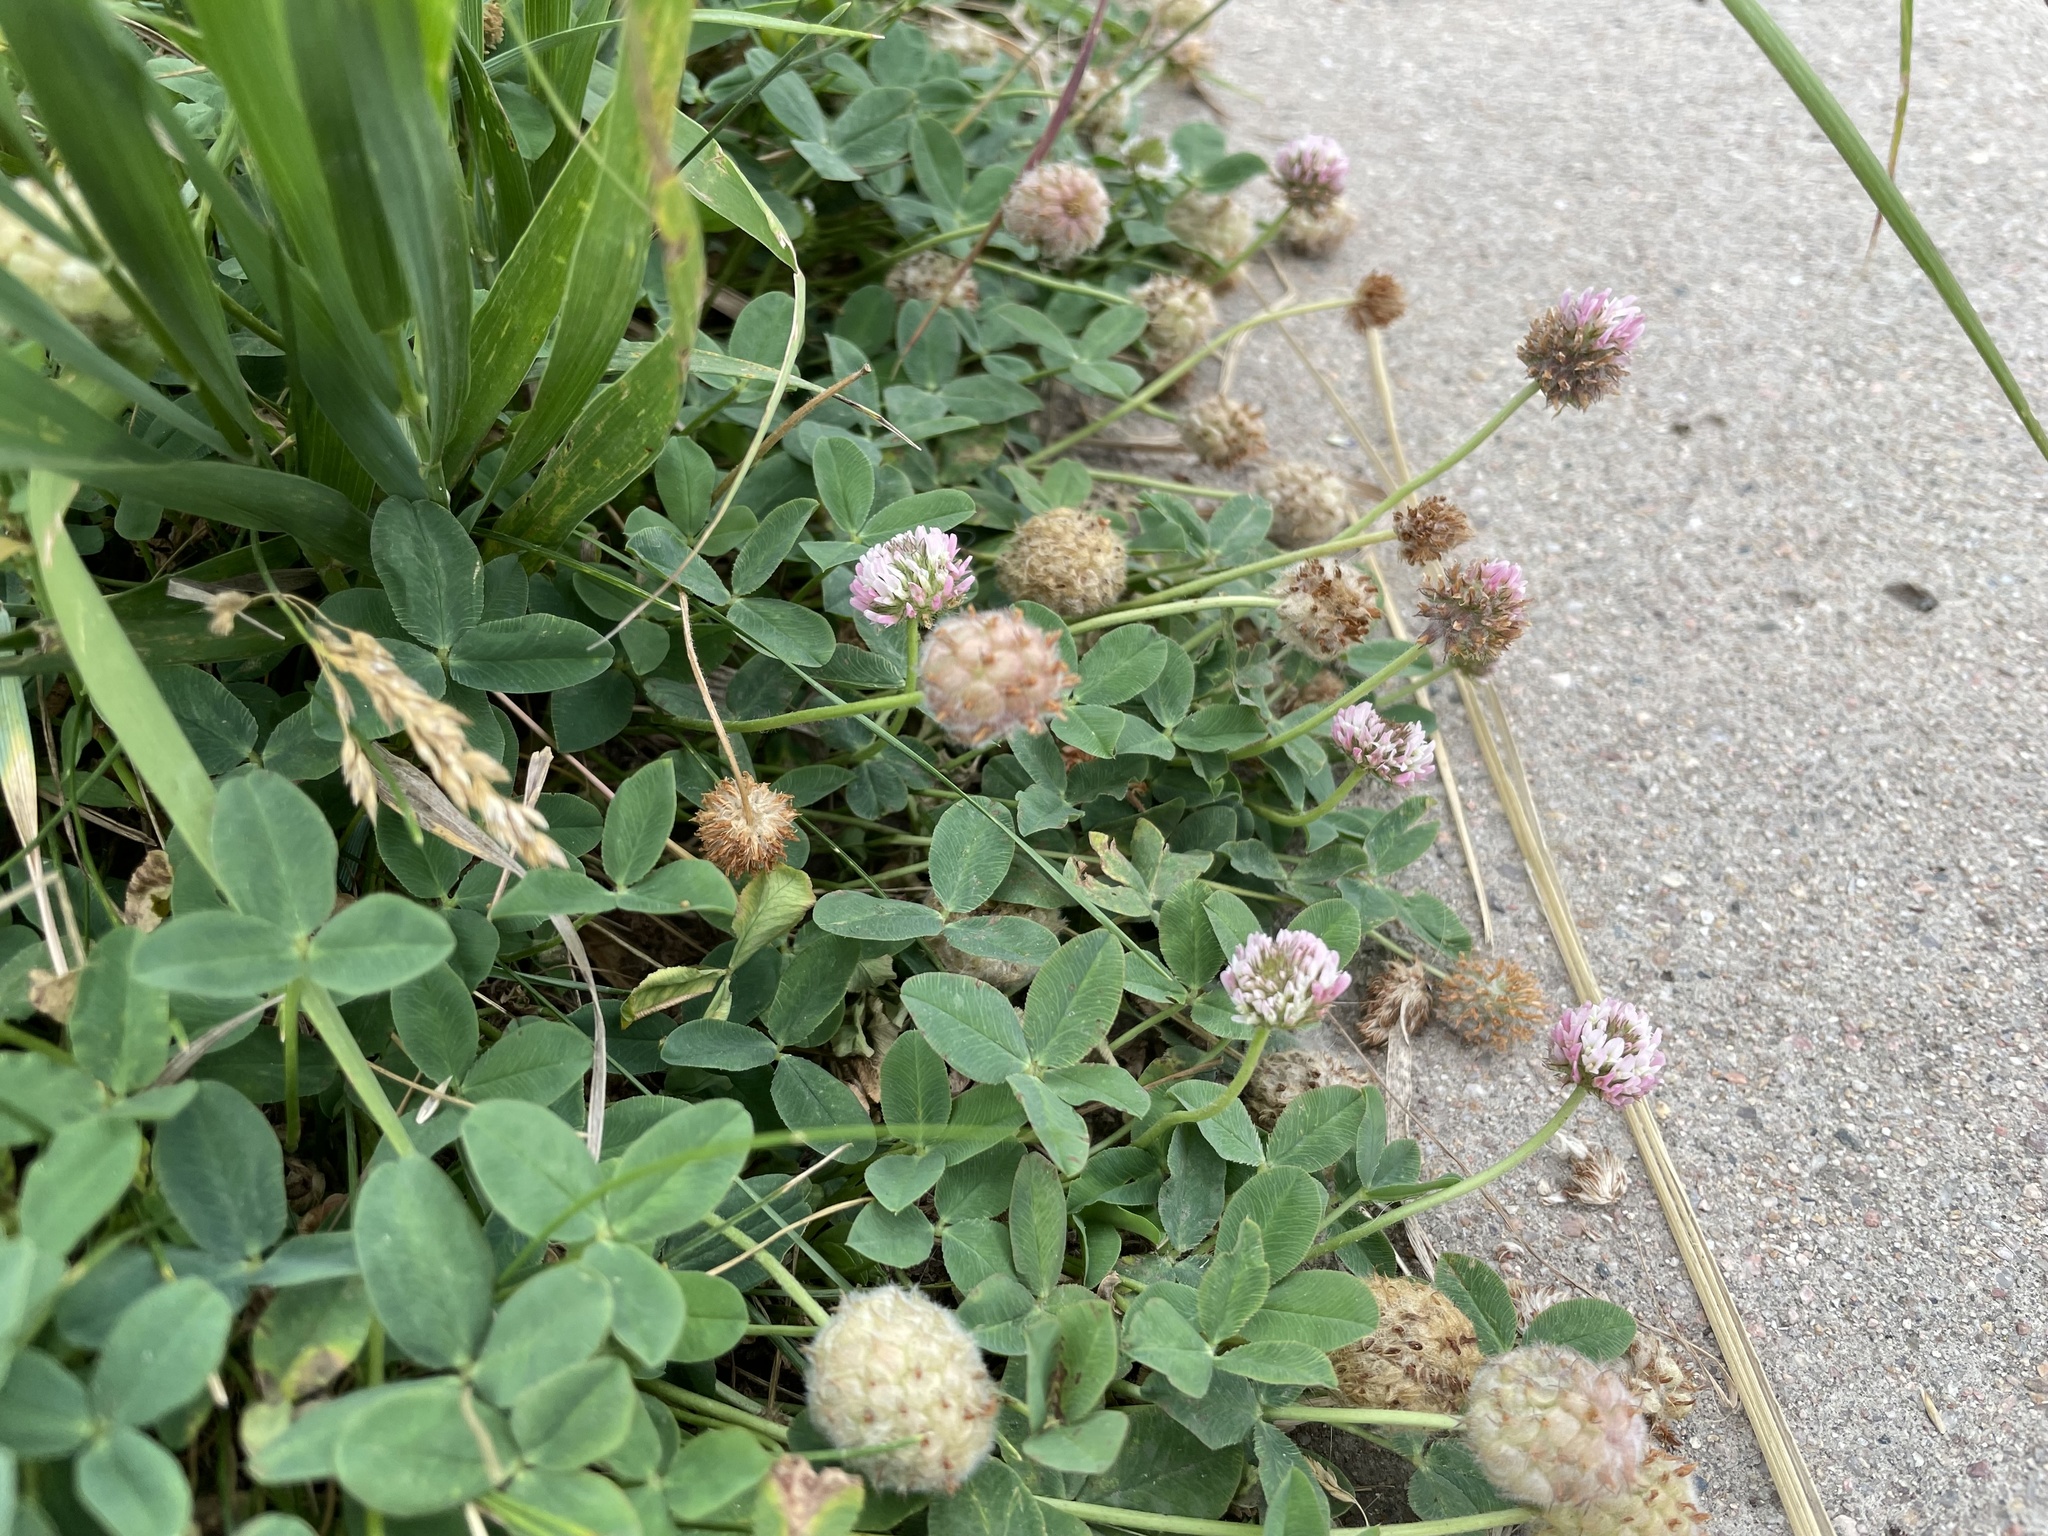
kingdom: Plantae
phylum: Tracheophyta
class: Magnoliopsida
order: Fabales
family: Fabaceae
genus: Trifolium
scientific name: Trifolium fragiferum
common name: Strawberry clover
